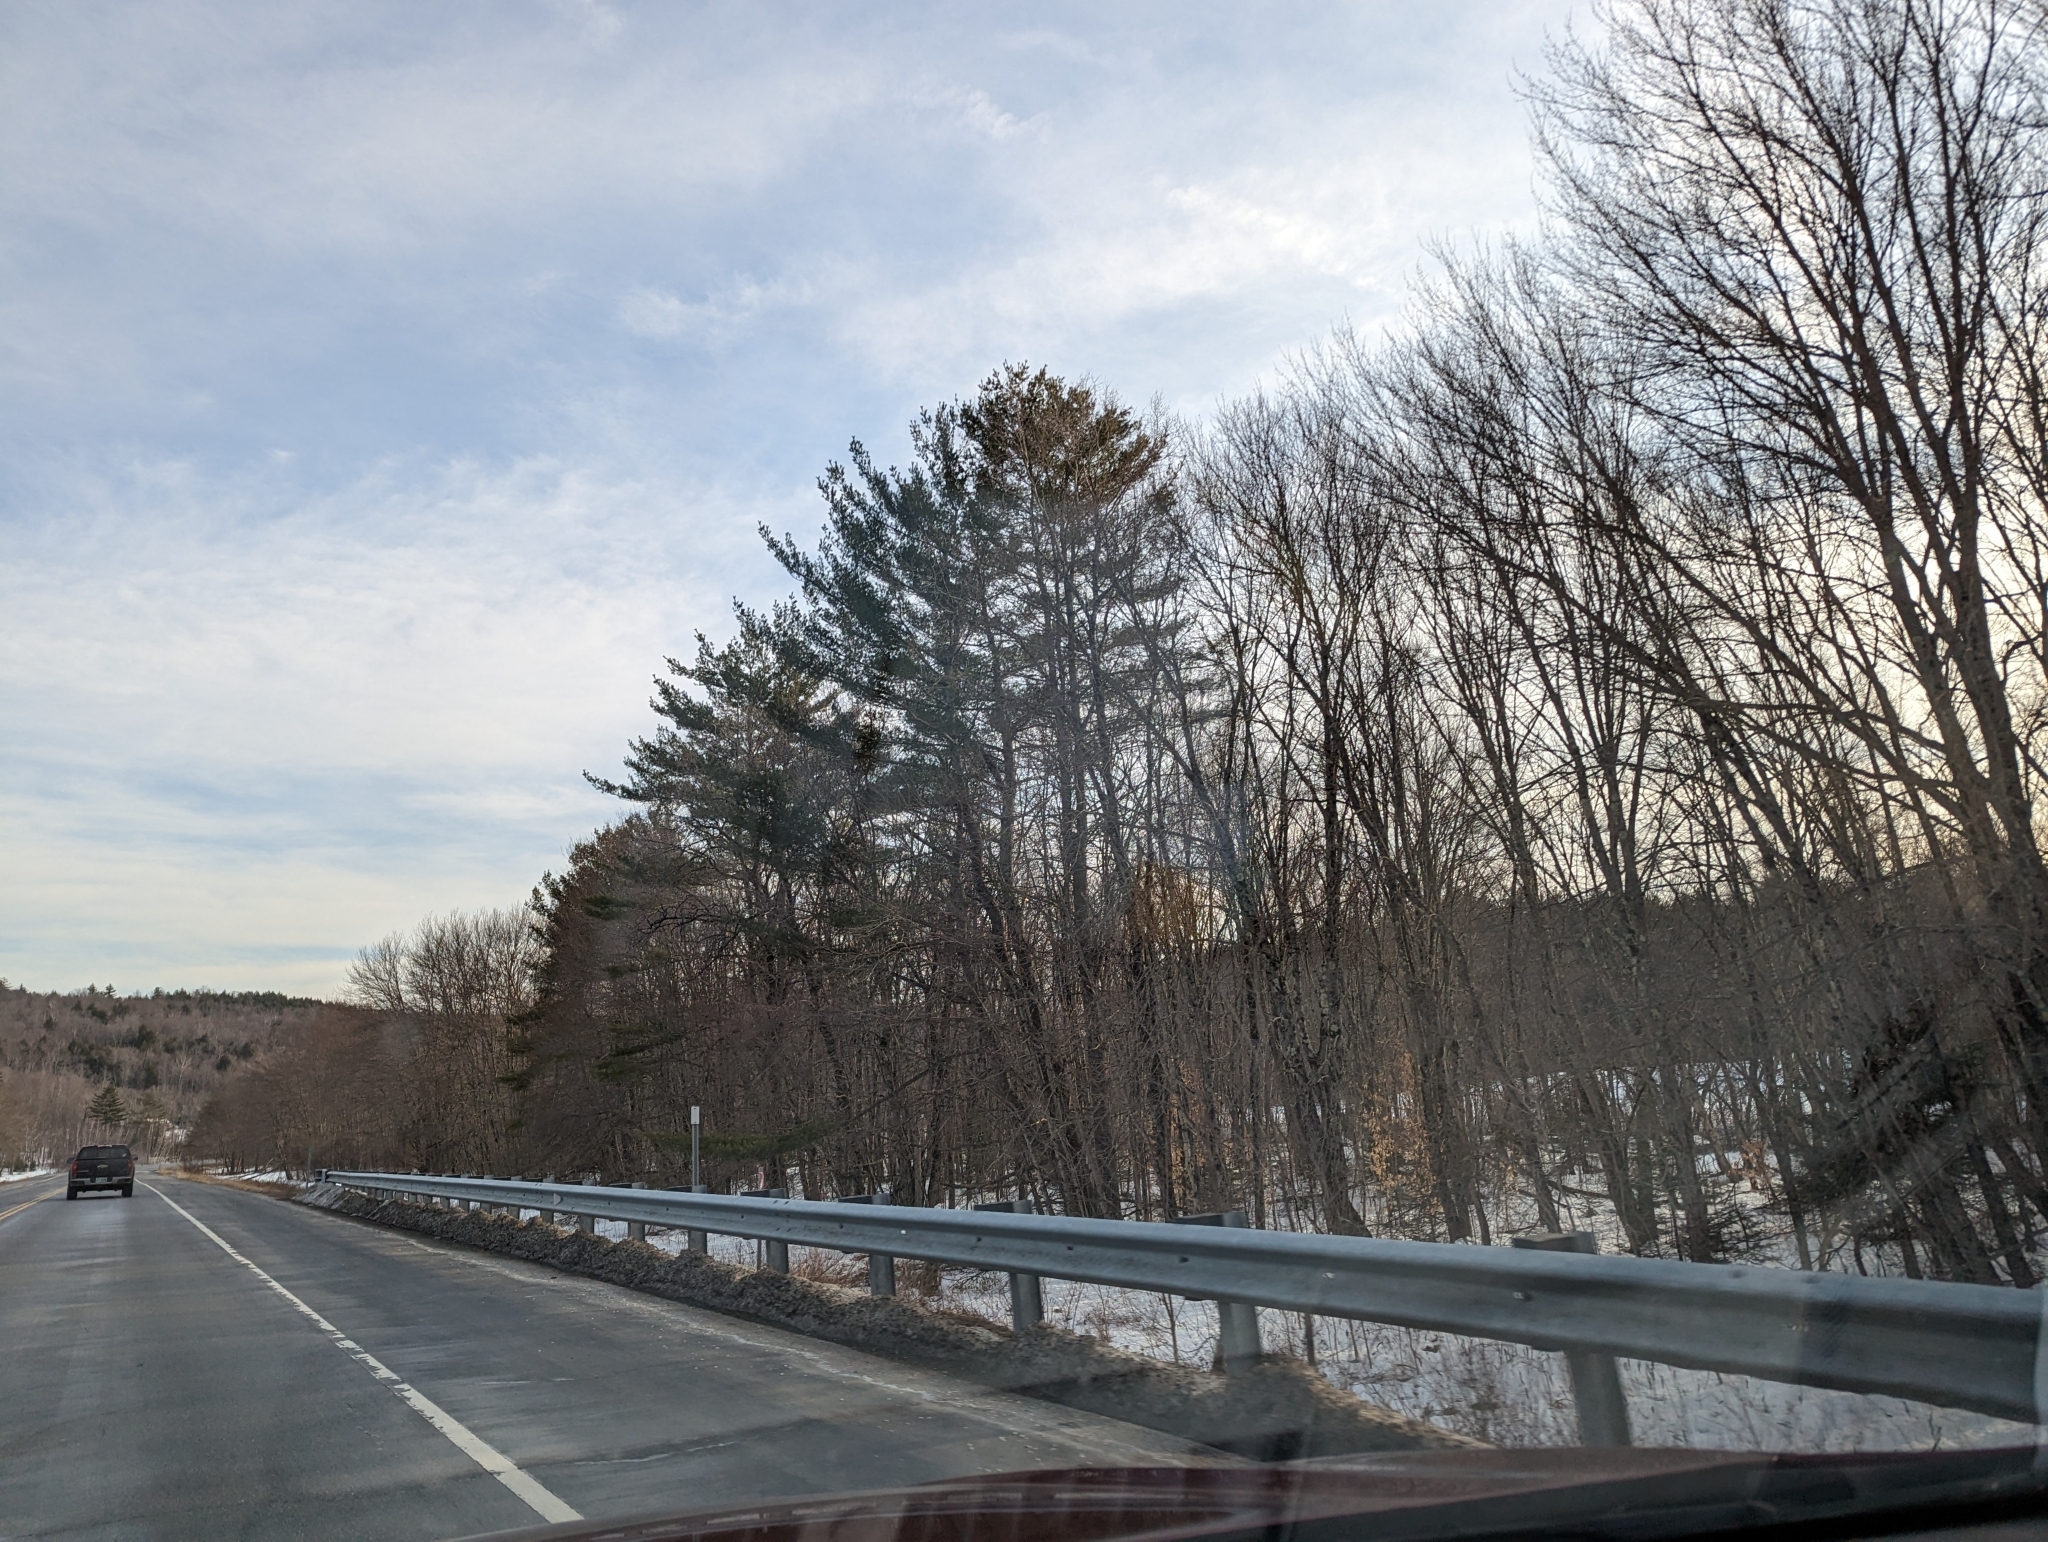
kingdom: Plantae
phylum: Tracheophyta
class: Pinopsida
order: Pinales
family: Pinaceae
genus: Pinus
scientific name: Pinus strobus
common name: Weymouth pine
